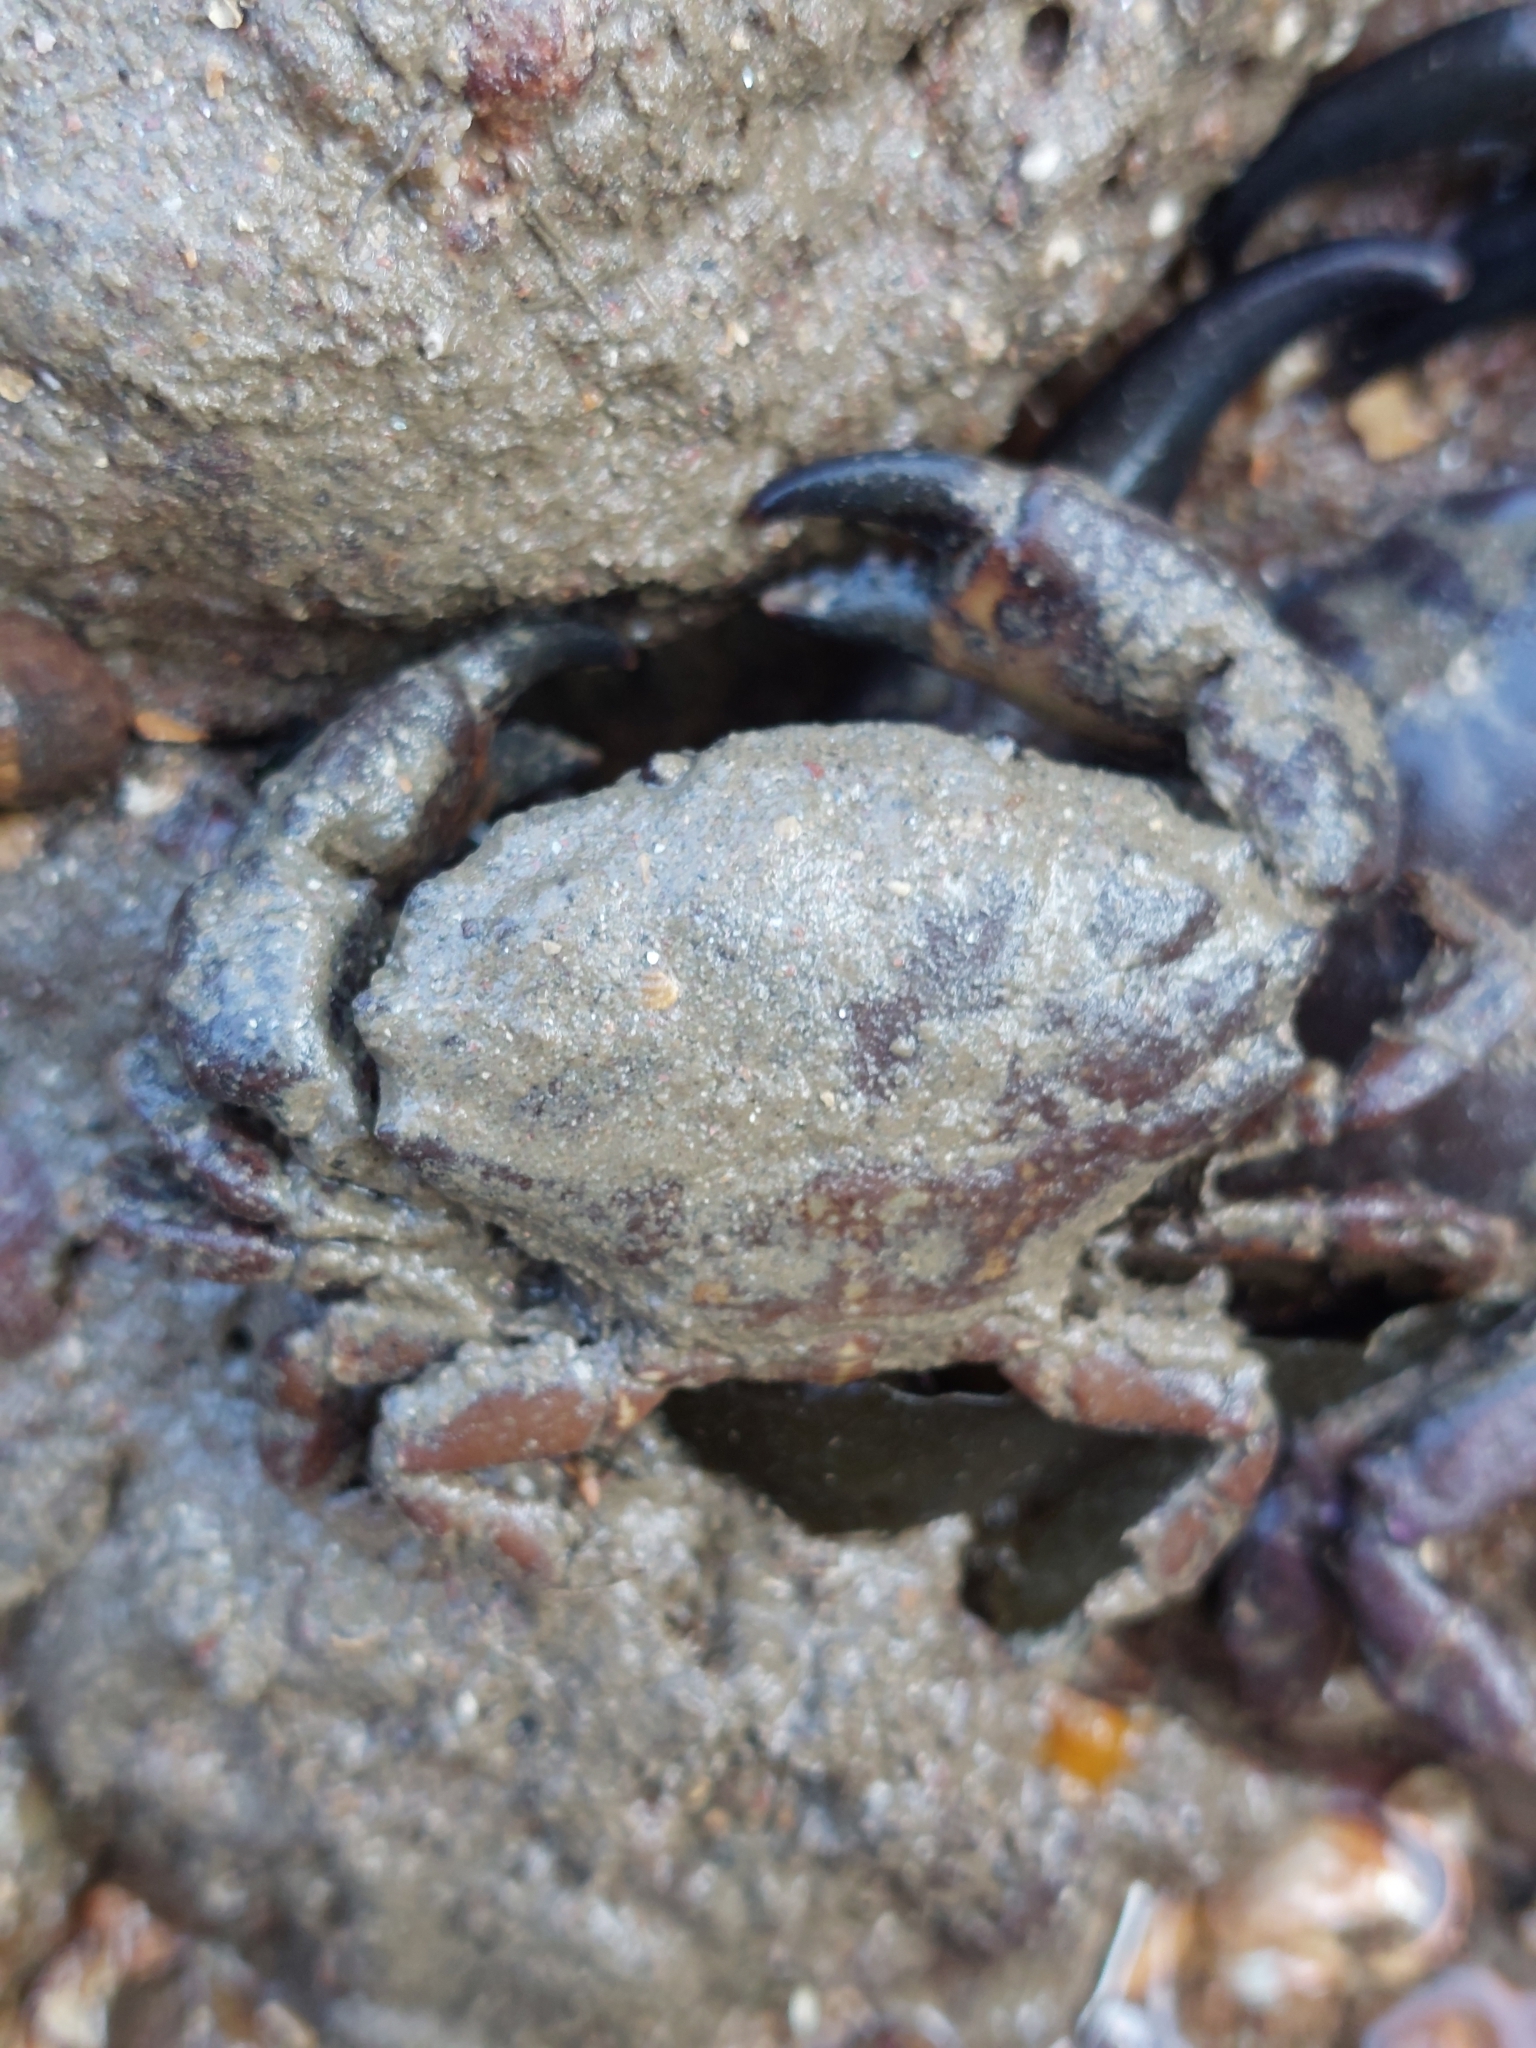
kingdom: Animalia
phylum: Arthropoda
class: Malacostraca
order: Decapoda
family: Xanthidae
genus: Xantho
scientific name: Xantho hydrophilus
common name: Montagu's crab
